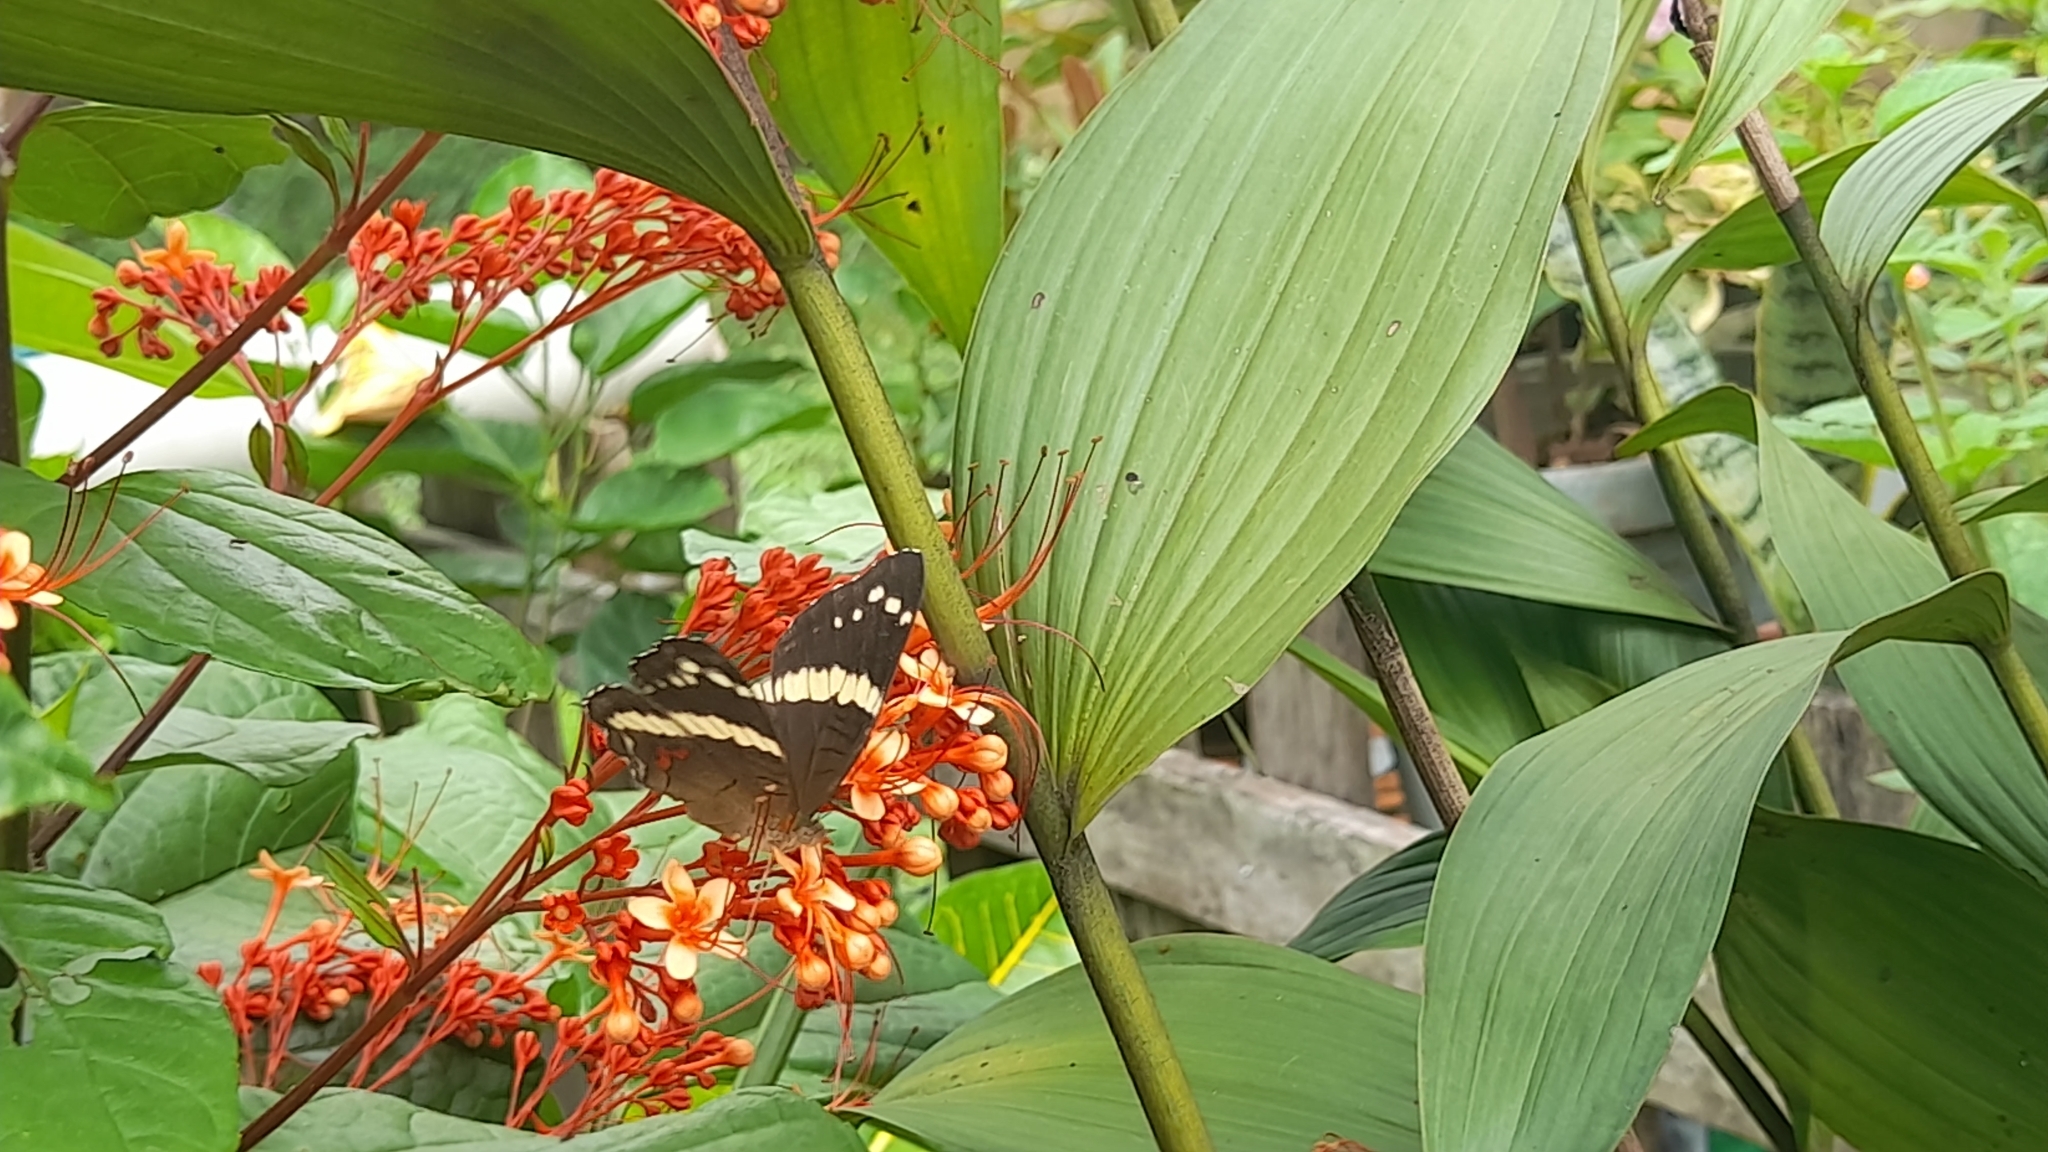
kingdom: Animalia
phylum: Arthropoda
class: Insecta
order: Lepidoptera
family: Nymphalidae
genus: Anartia
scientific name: Anartia fatima
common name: Banded peacock
